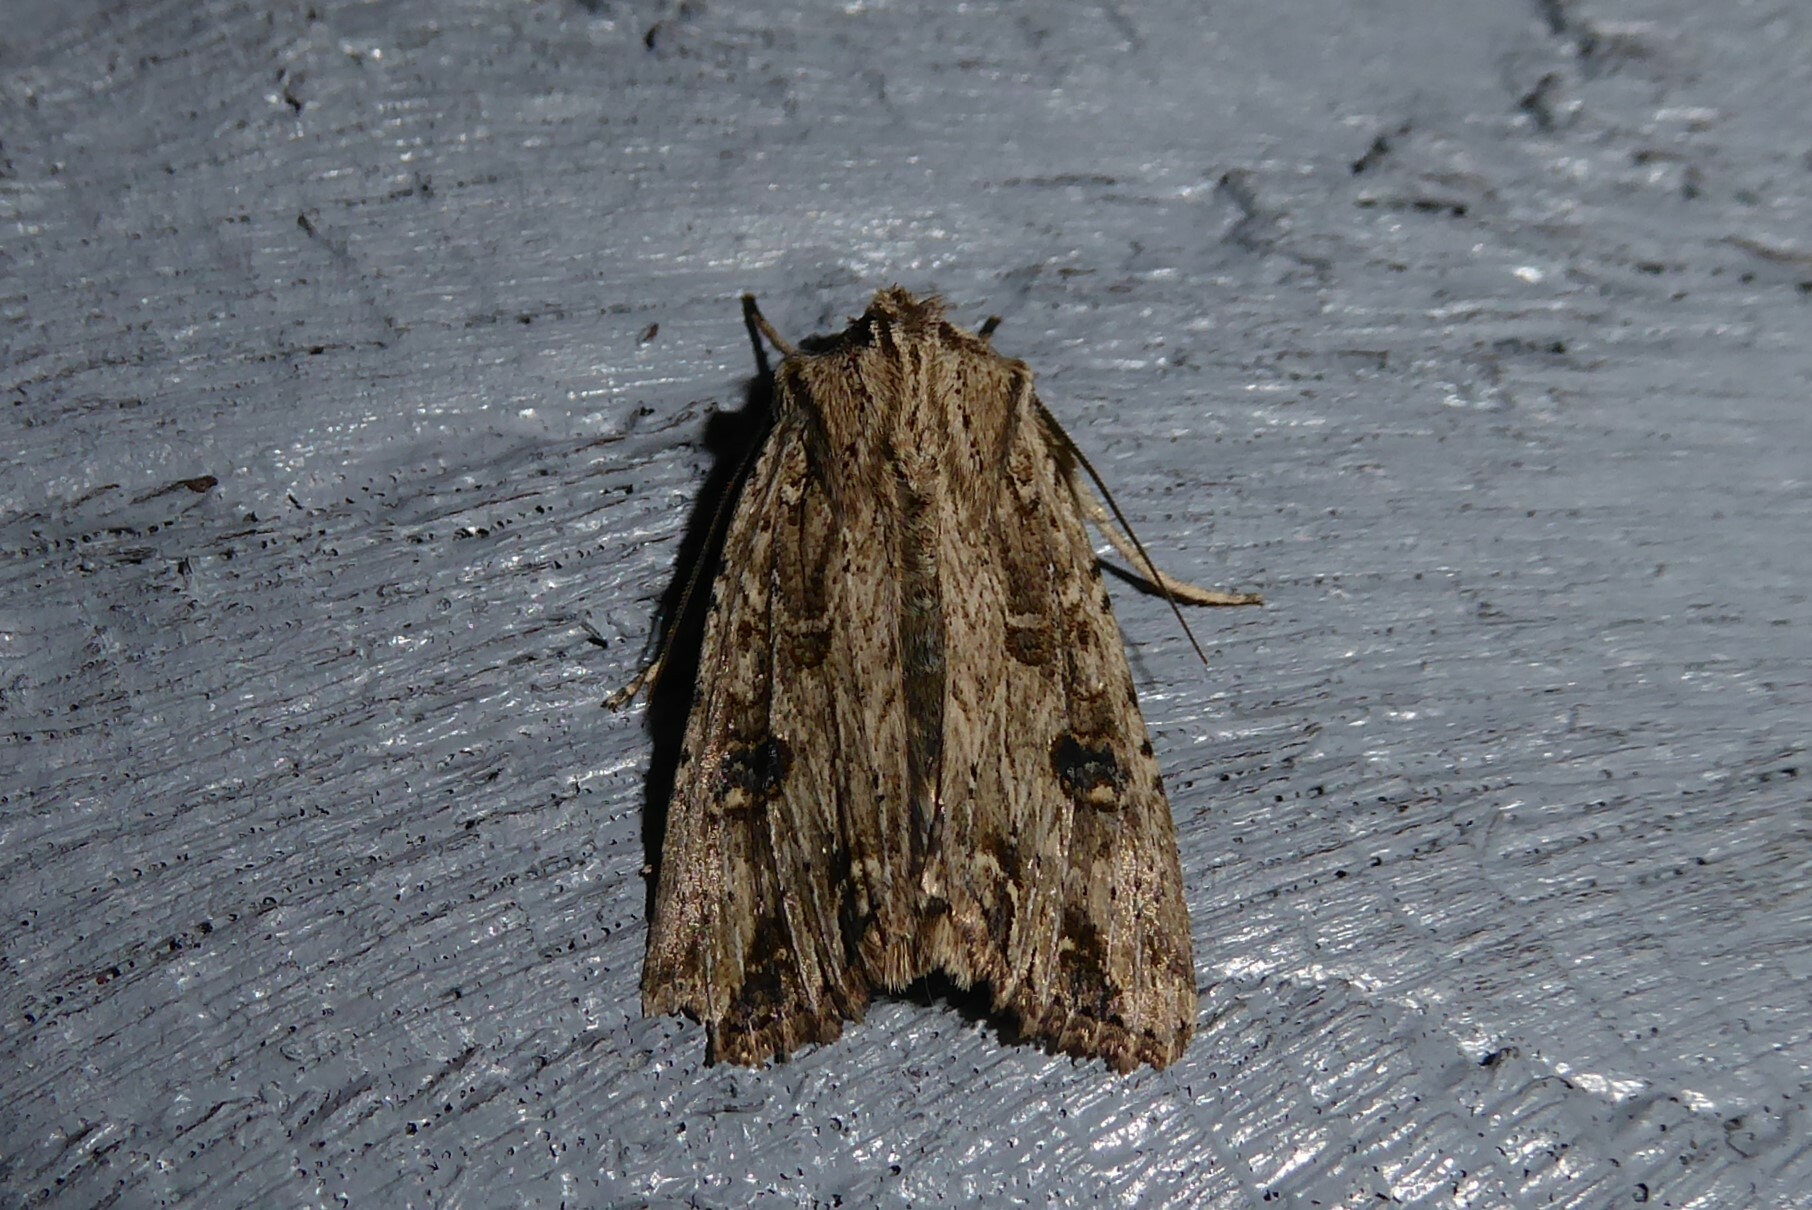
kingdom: Animalia
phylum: Arthropoda
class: Insecta
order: Lepidoptera
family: Noctuidae
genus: Ichneutica
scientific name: Ichneutica lignana
